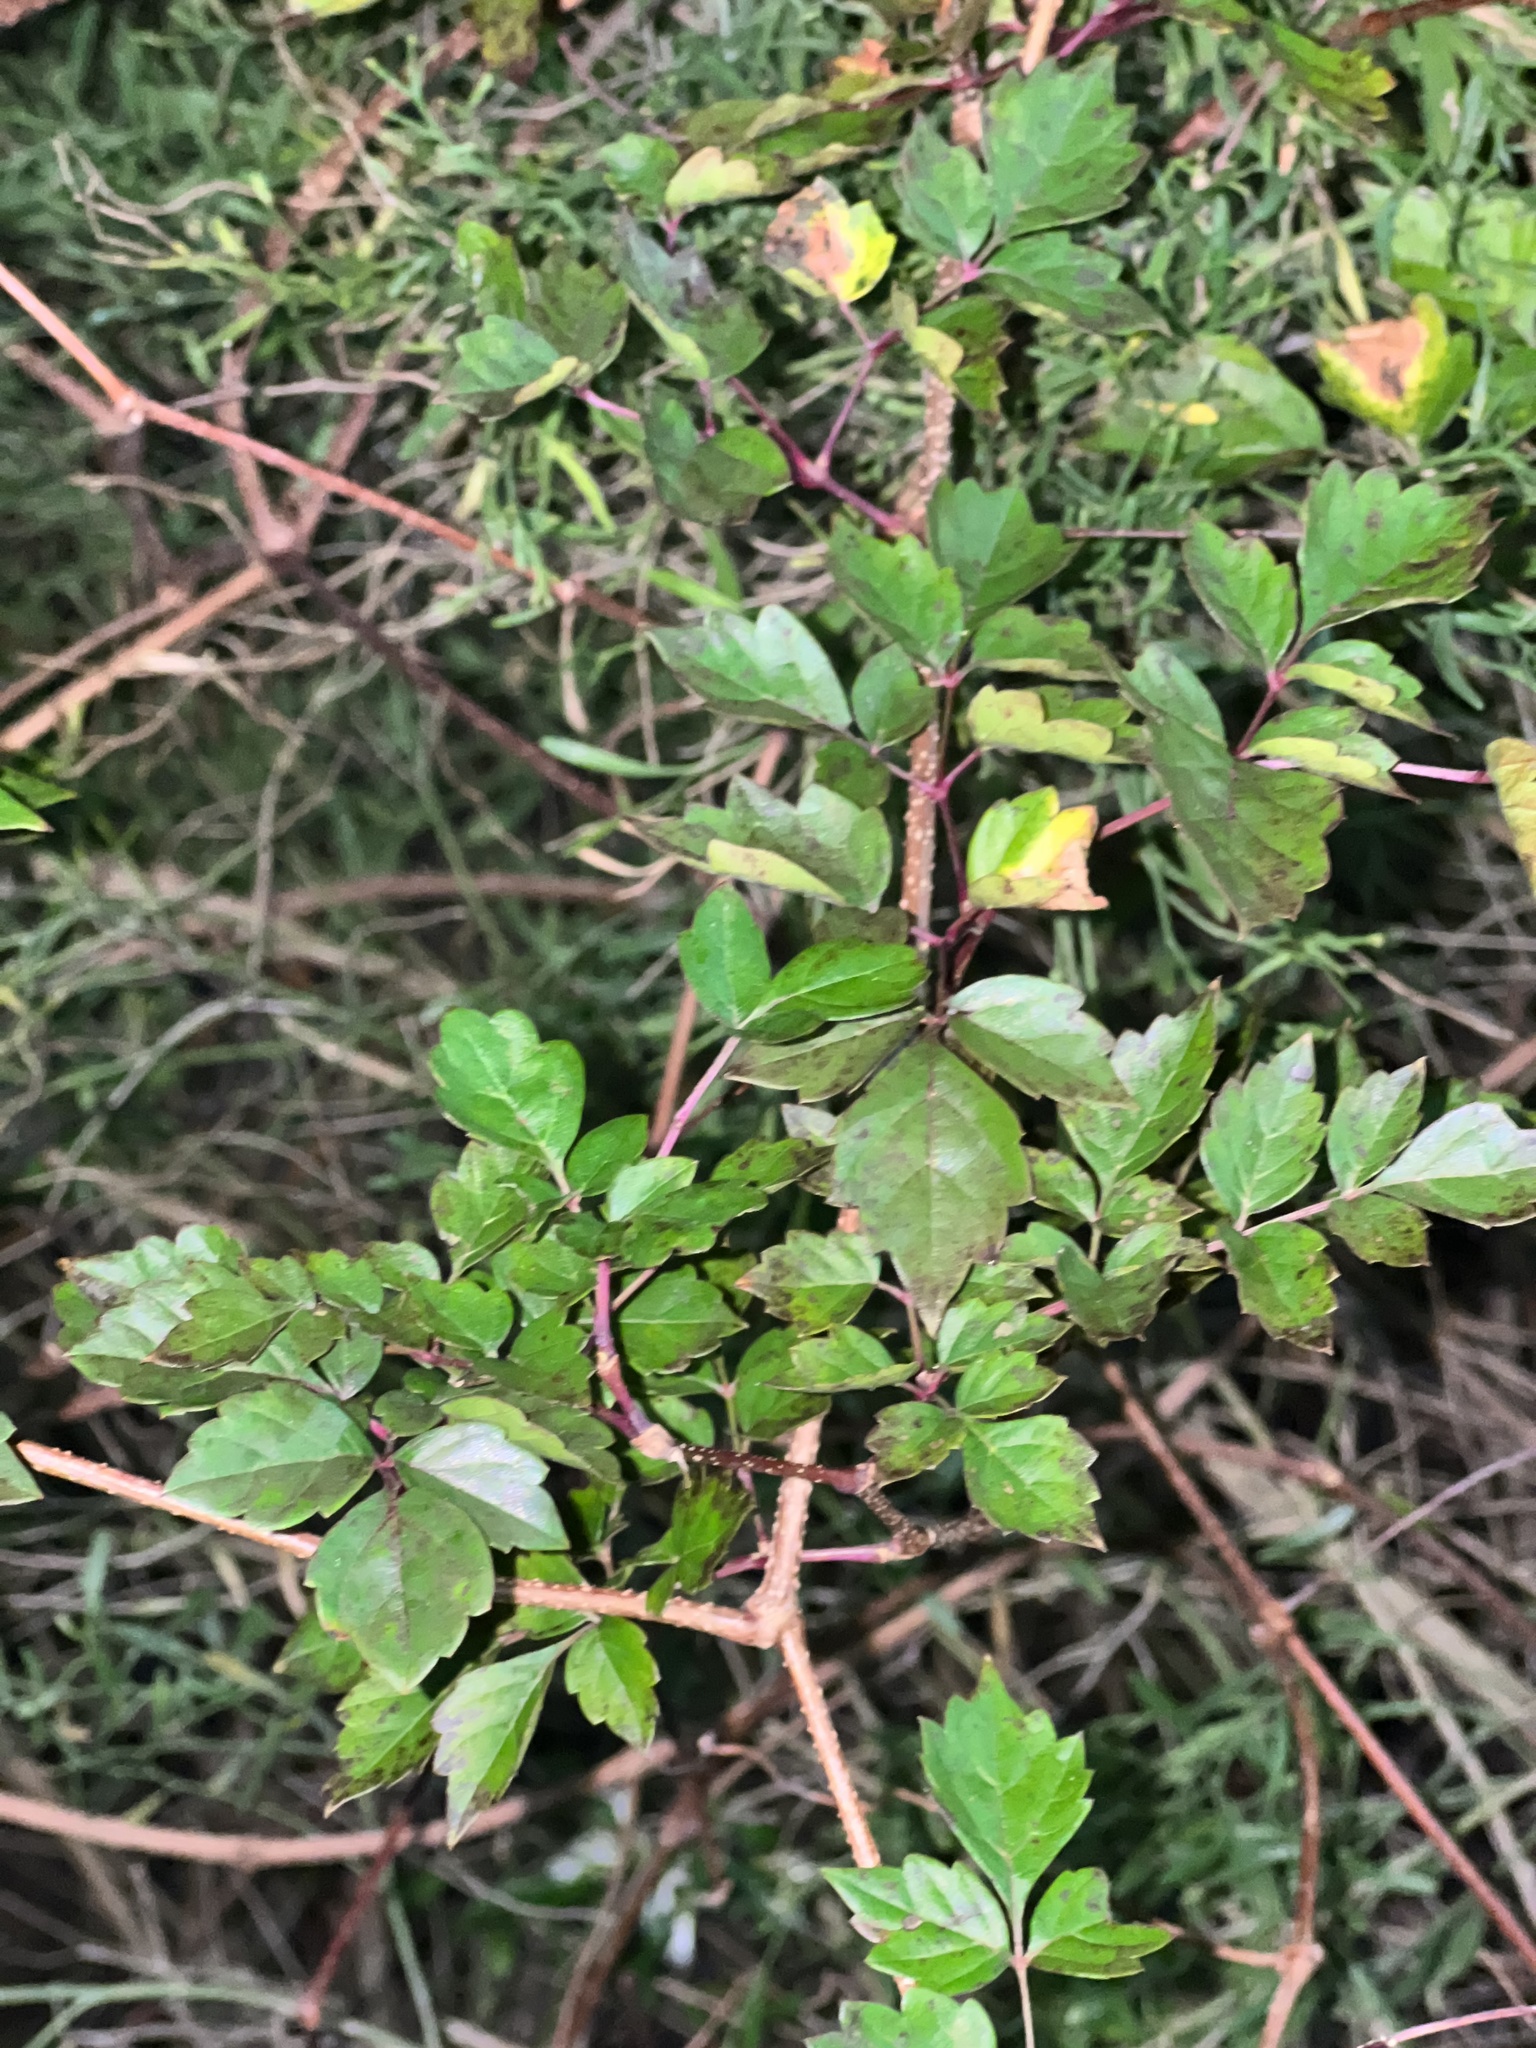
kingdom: Plantae
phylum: Tracheophyta
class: Magnoliopsida
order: Vitales
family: Vitaceae
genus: Nekemias
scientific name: Nekemias arborea
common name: Peppervine
